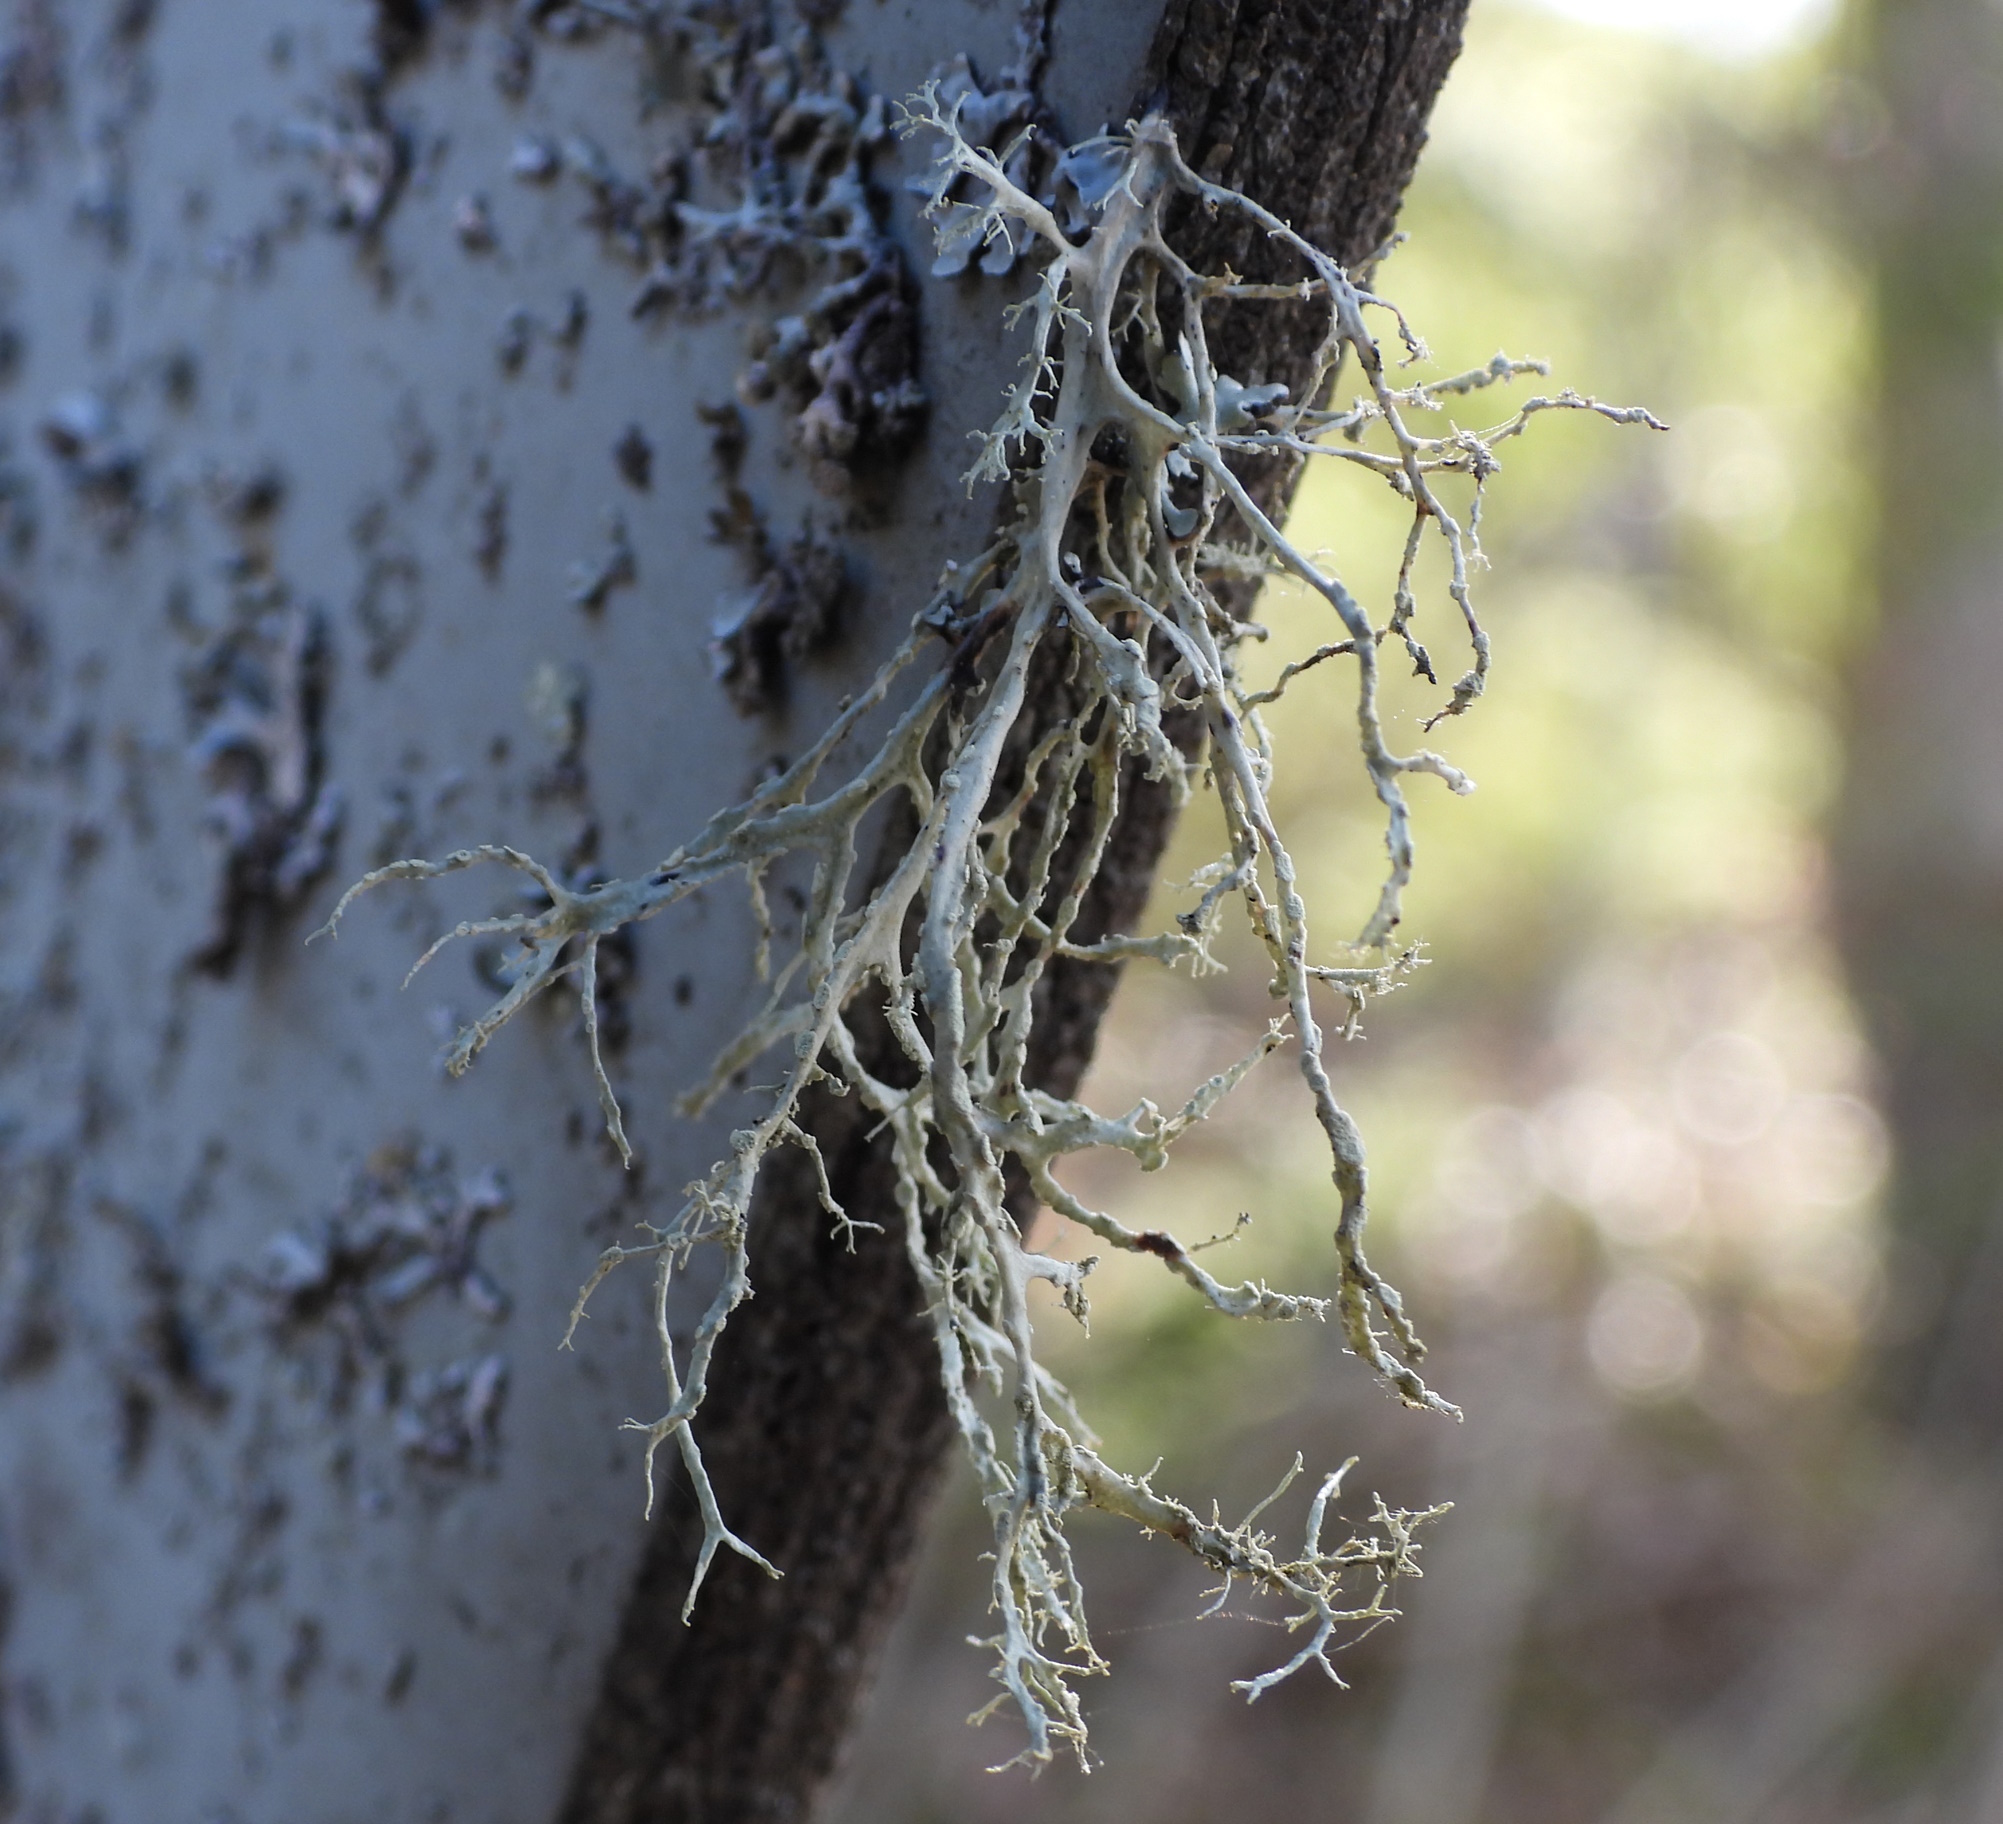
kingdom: Fungi
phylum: Ascomycota
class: Lecanoromycetes
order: Lecanorales
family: Ramalinaceae
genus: Ramalina
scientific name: Ramalina farinacea
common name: Farinose cartilage lichen
